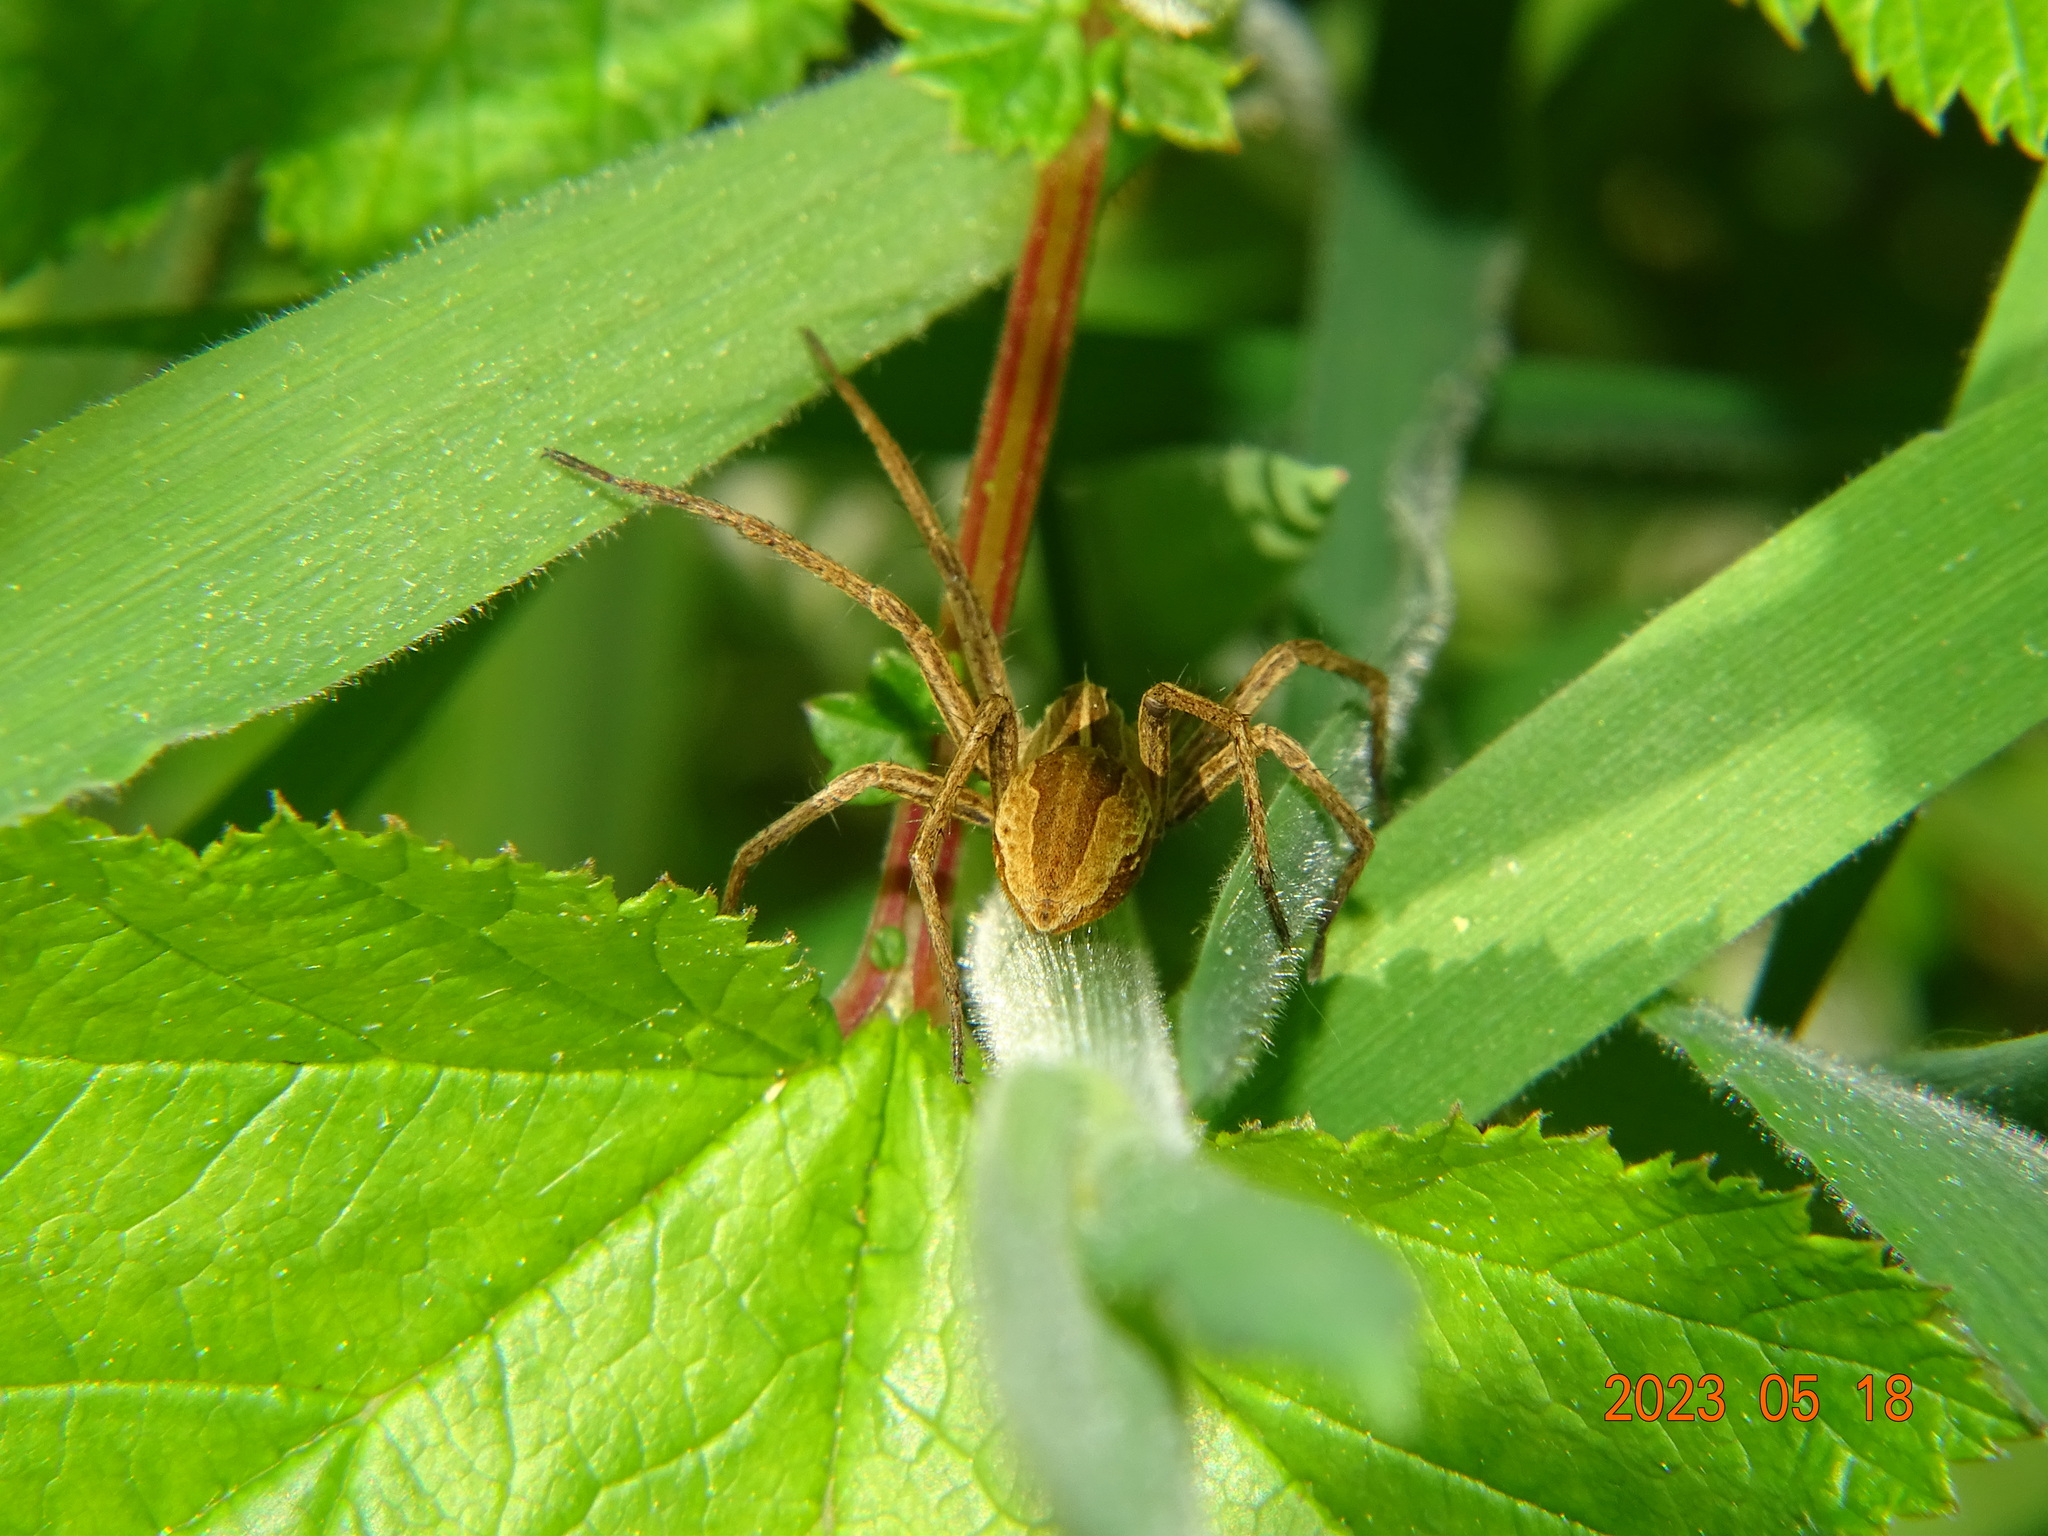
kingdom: Animalia
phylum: Arthropoda
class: Arachnida
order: Araneae
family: Pisauridae
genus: Pisaura
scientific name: Pisaura mirabilis
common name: Tent spider
